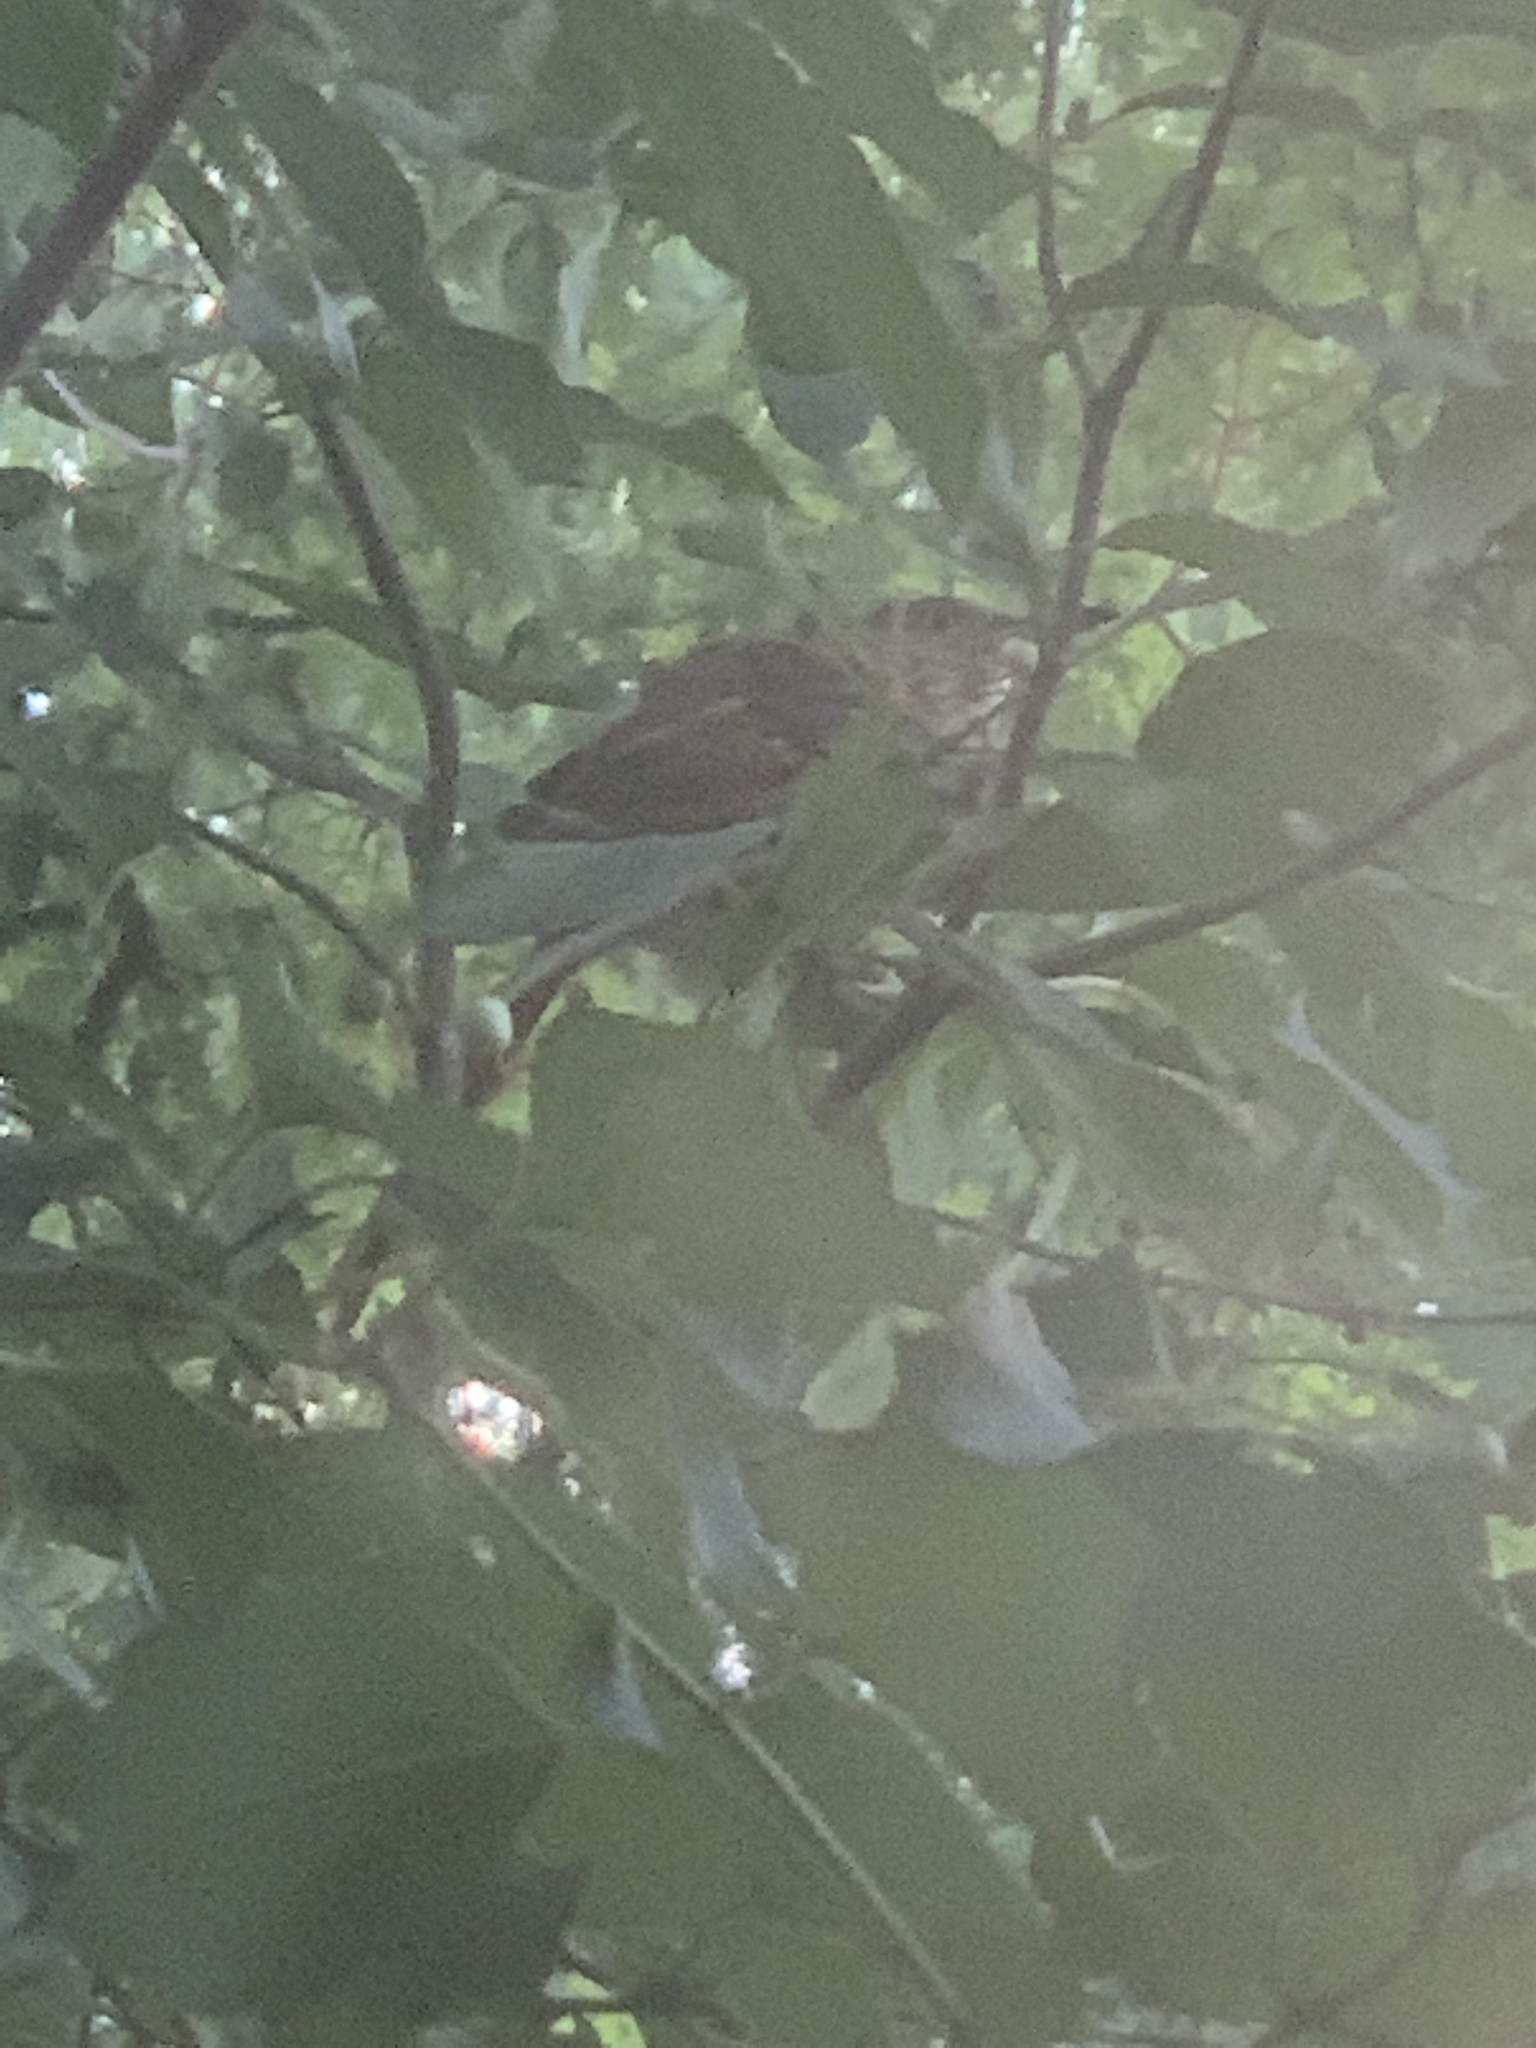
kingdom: Animalia
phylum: Chordata
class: Aves
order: Passeriformes
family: Mimidae
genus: Toxostoma
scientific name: Toxostoma rufum
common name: Brown thrasher
